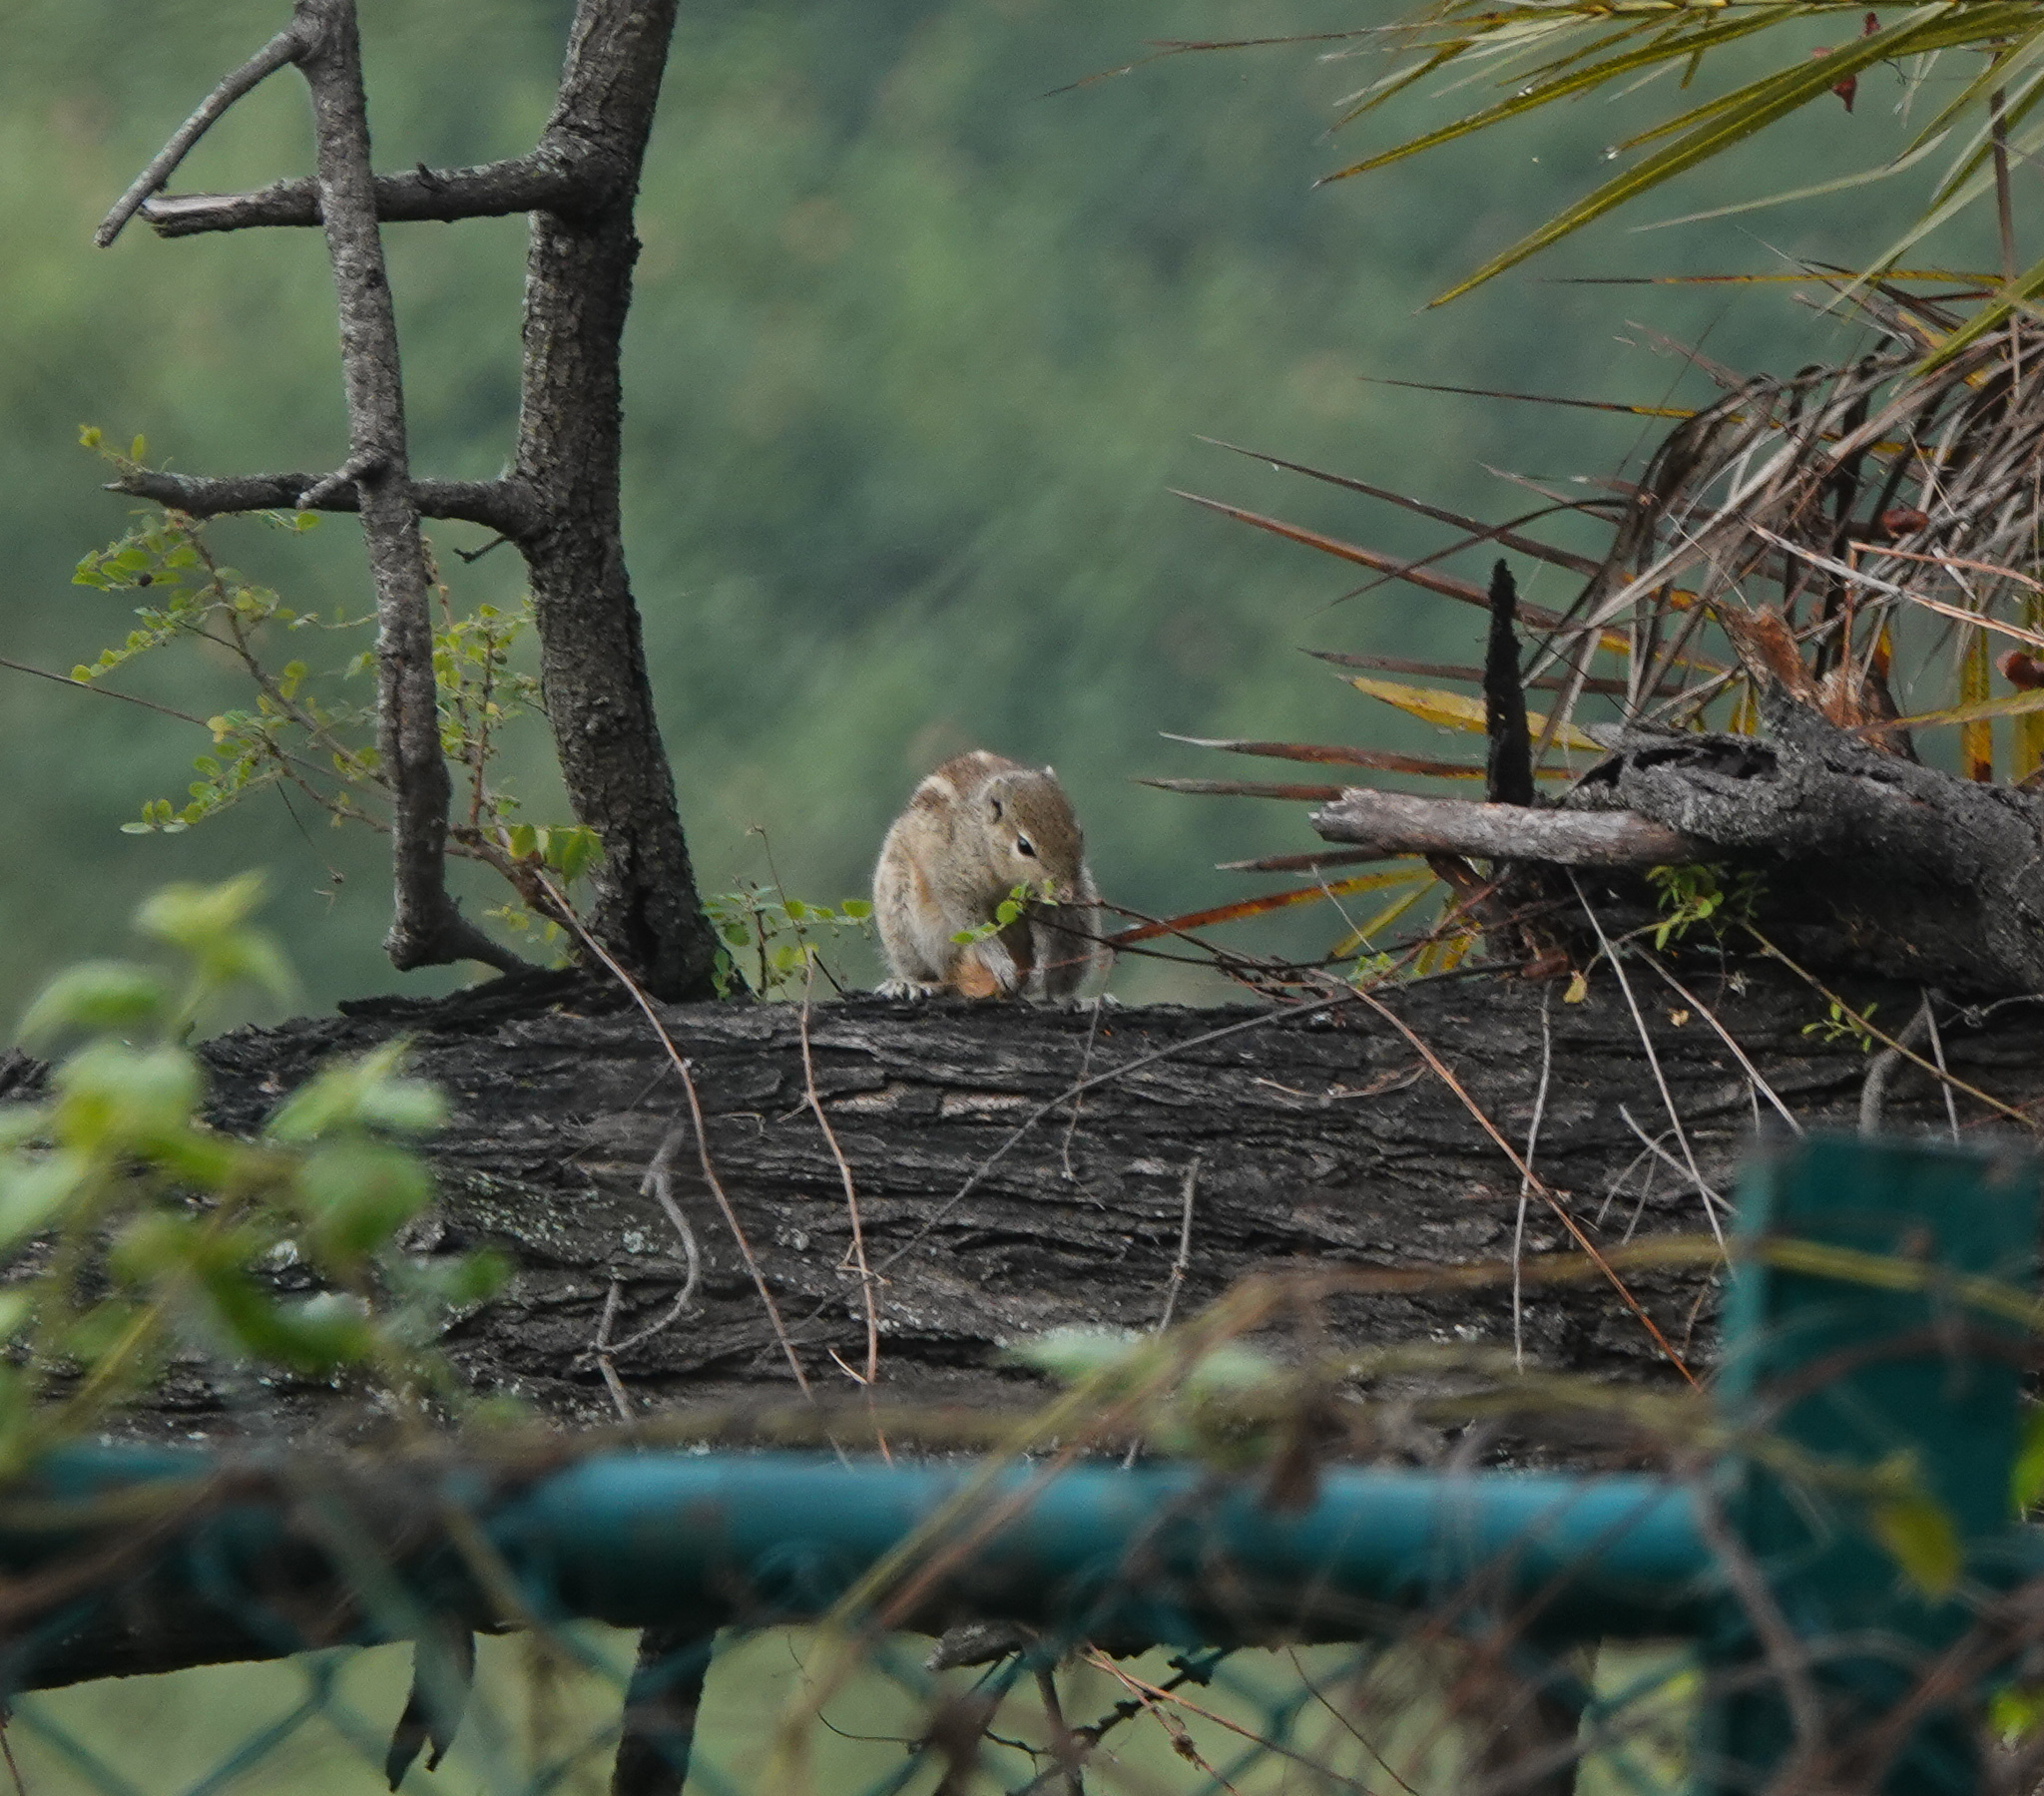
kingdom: Animalia
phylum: Chordata
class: Mammalia
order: Rodentia
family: Sciuridae
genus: Funambulus
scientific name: Funambulus palmarum
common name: Indian palm squirrel
